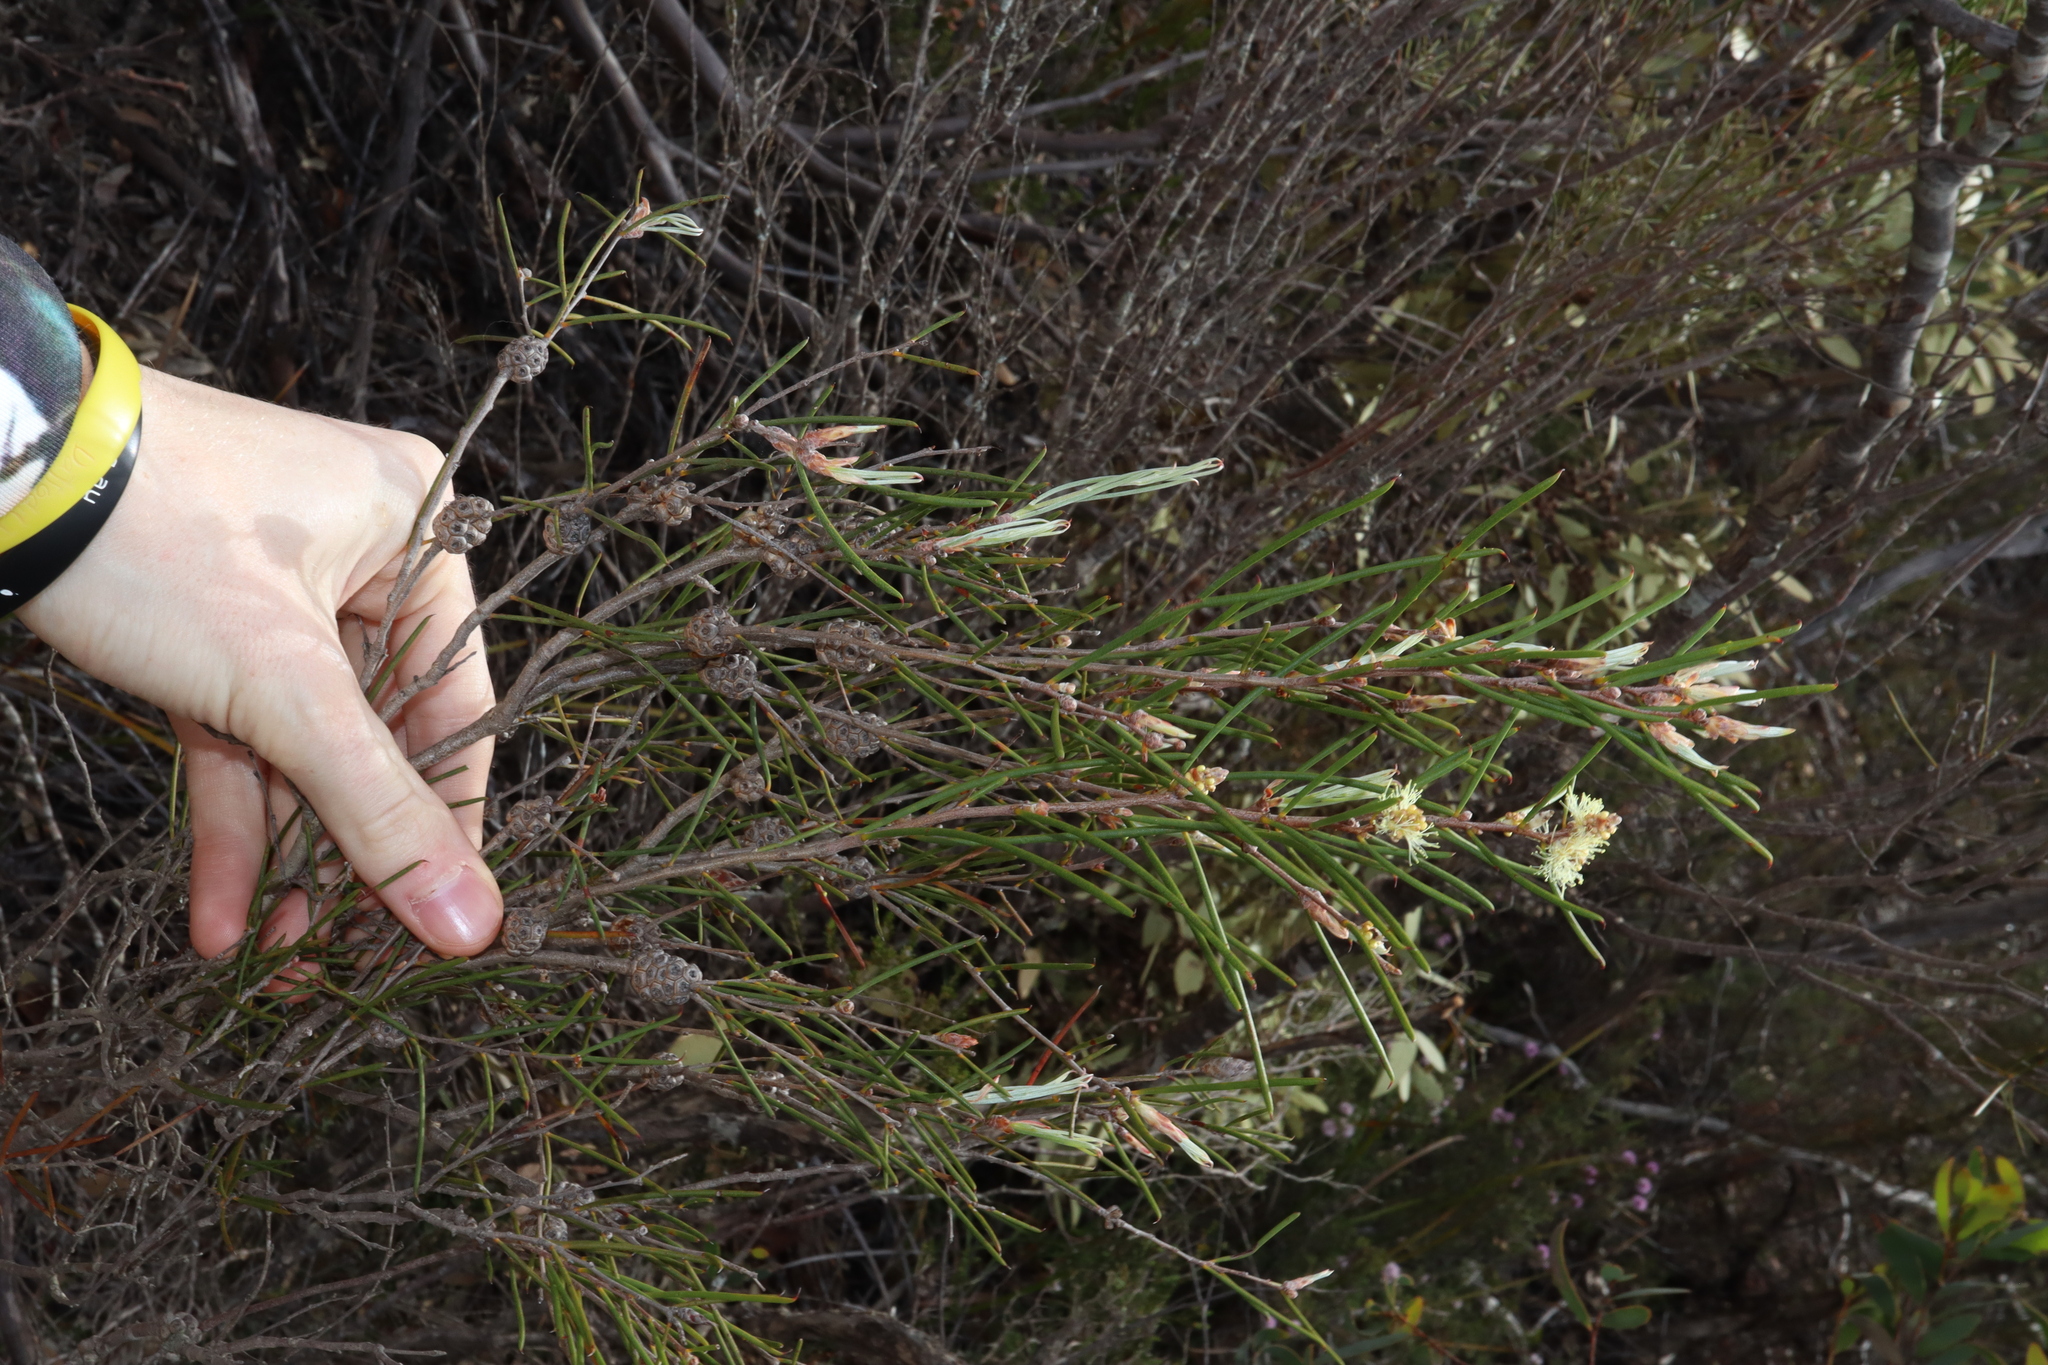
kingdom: Plantae
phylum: Tracheophyta
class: Magnoliopsida
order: Myrtales
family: Myrtaceae
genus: Melaleuca
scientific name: Melaleuca hamata
